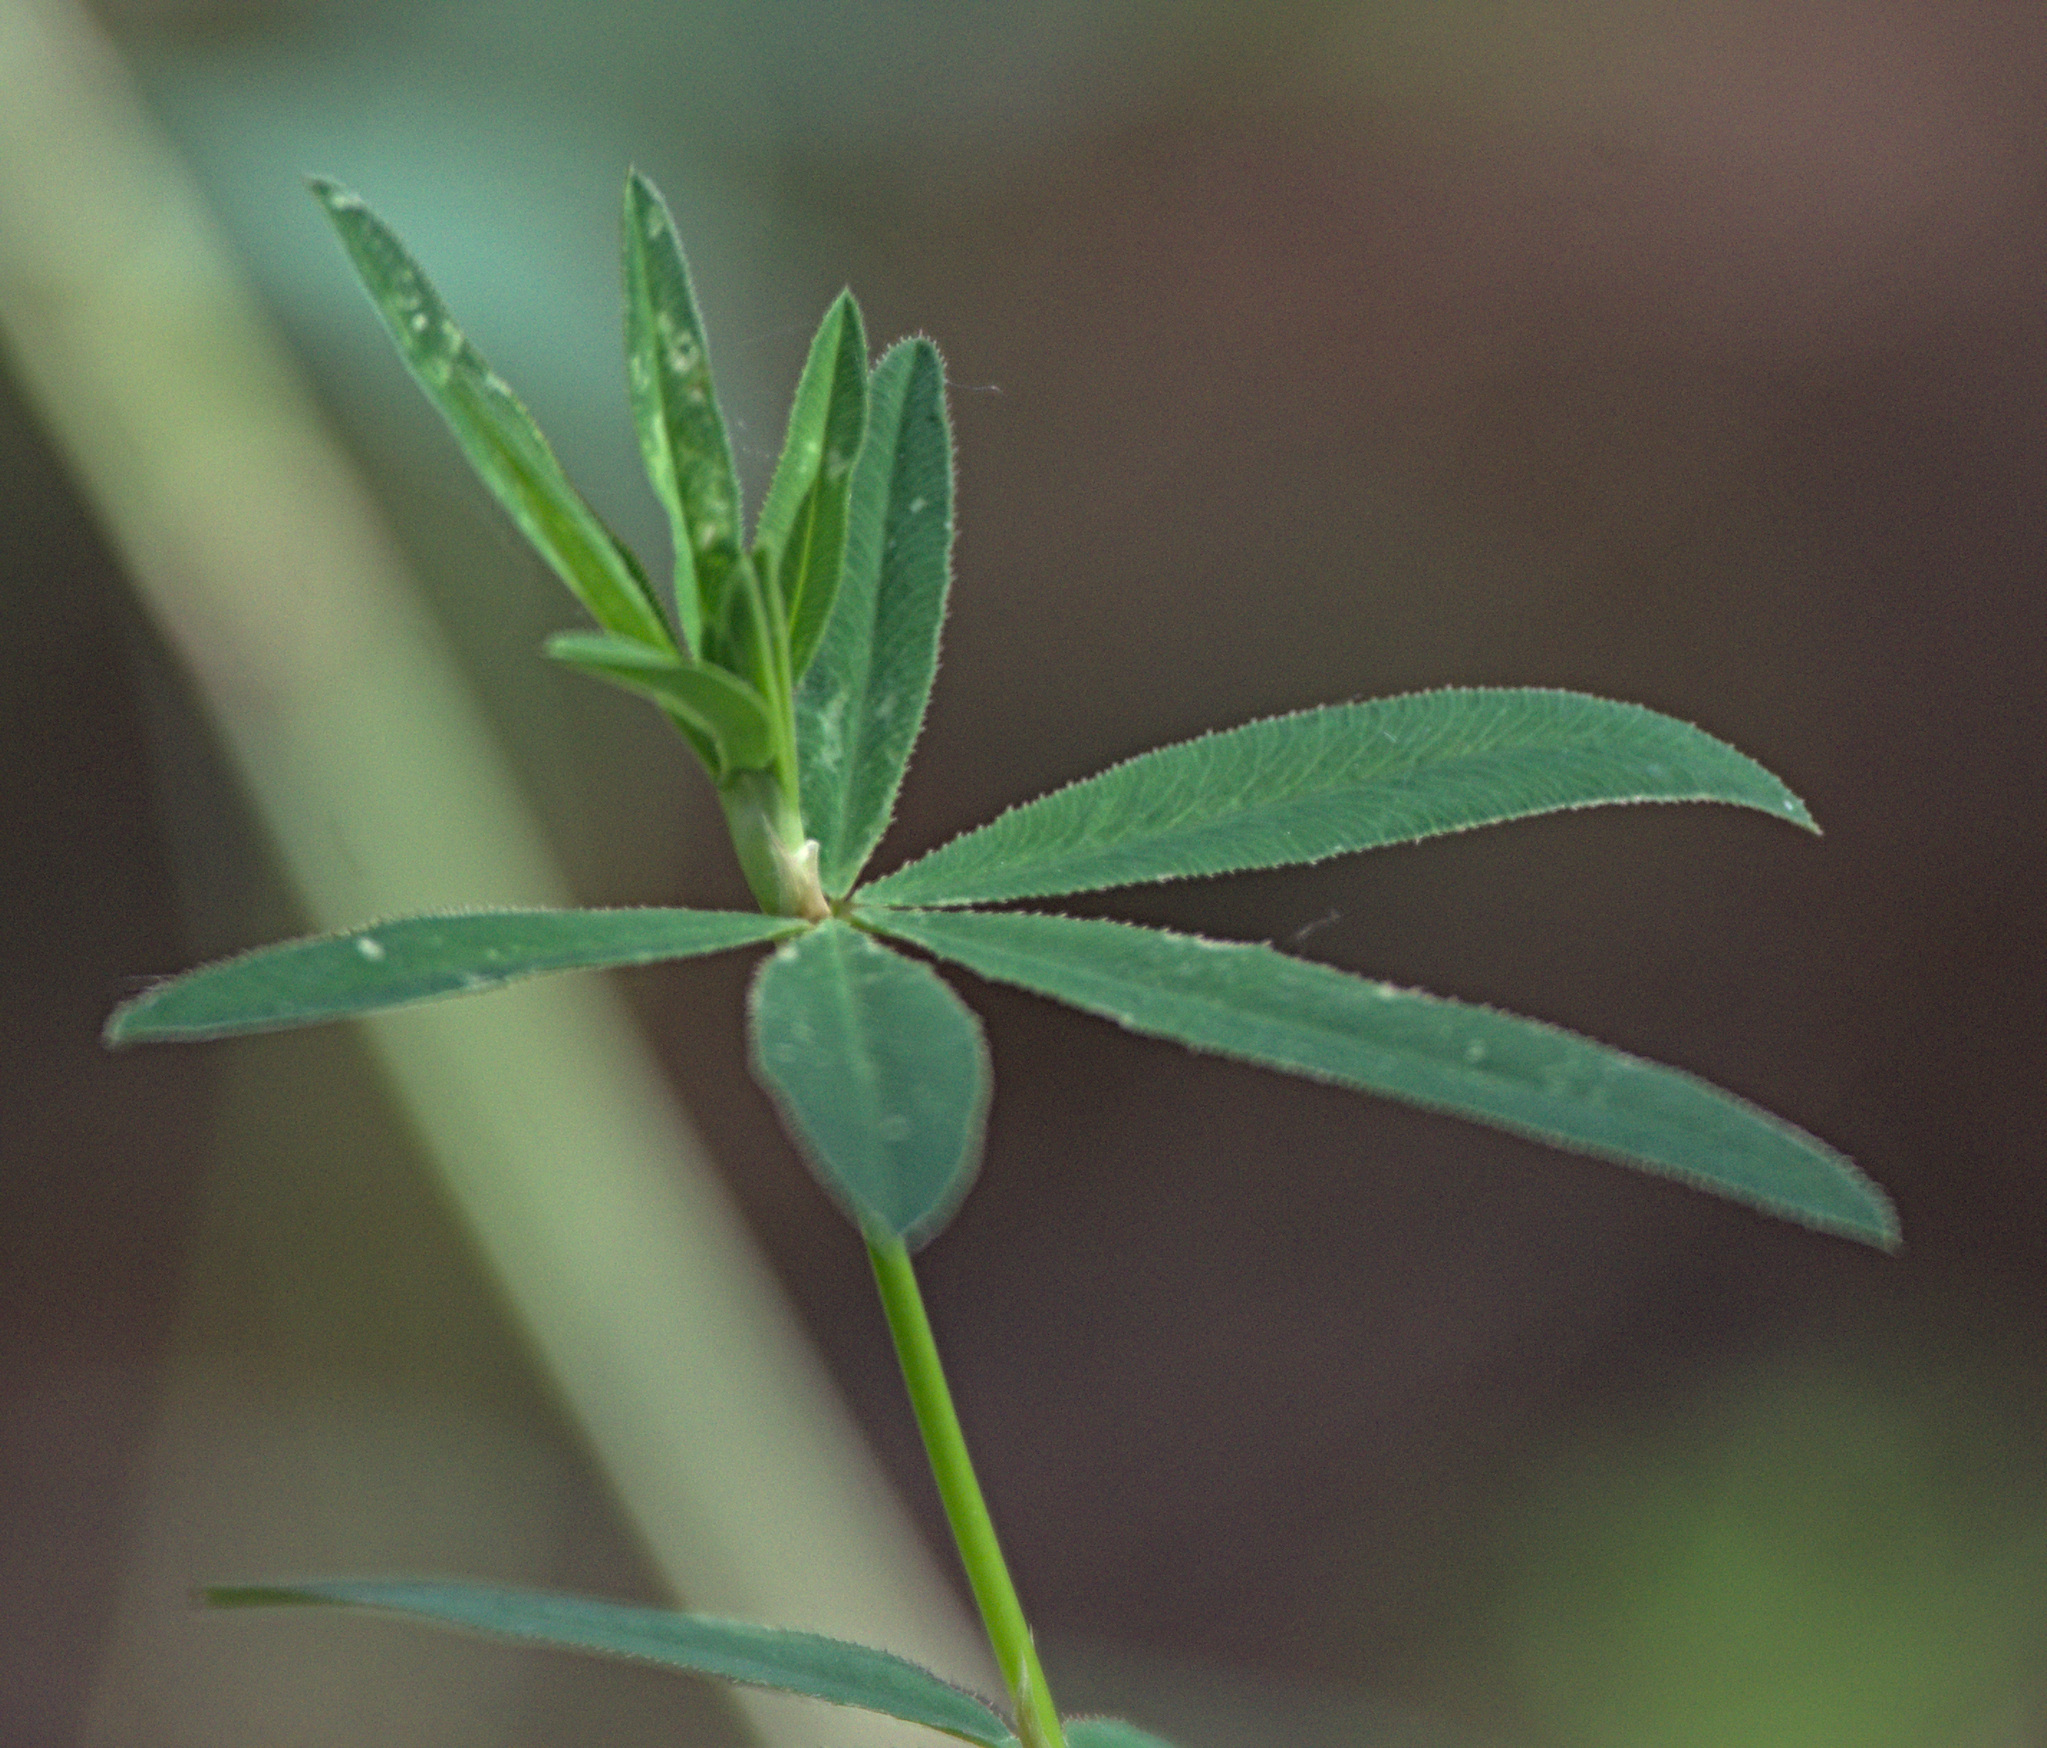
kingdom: Plantae
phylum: Tracheophyta
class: Magnoliopsida
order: Fabales
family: Fabaceae
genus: Trifolium
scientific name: Trifolium lupinaster
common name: Lupine clover
